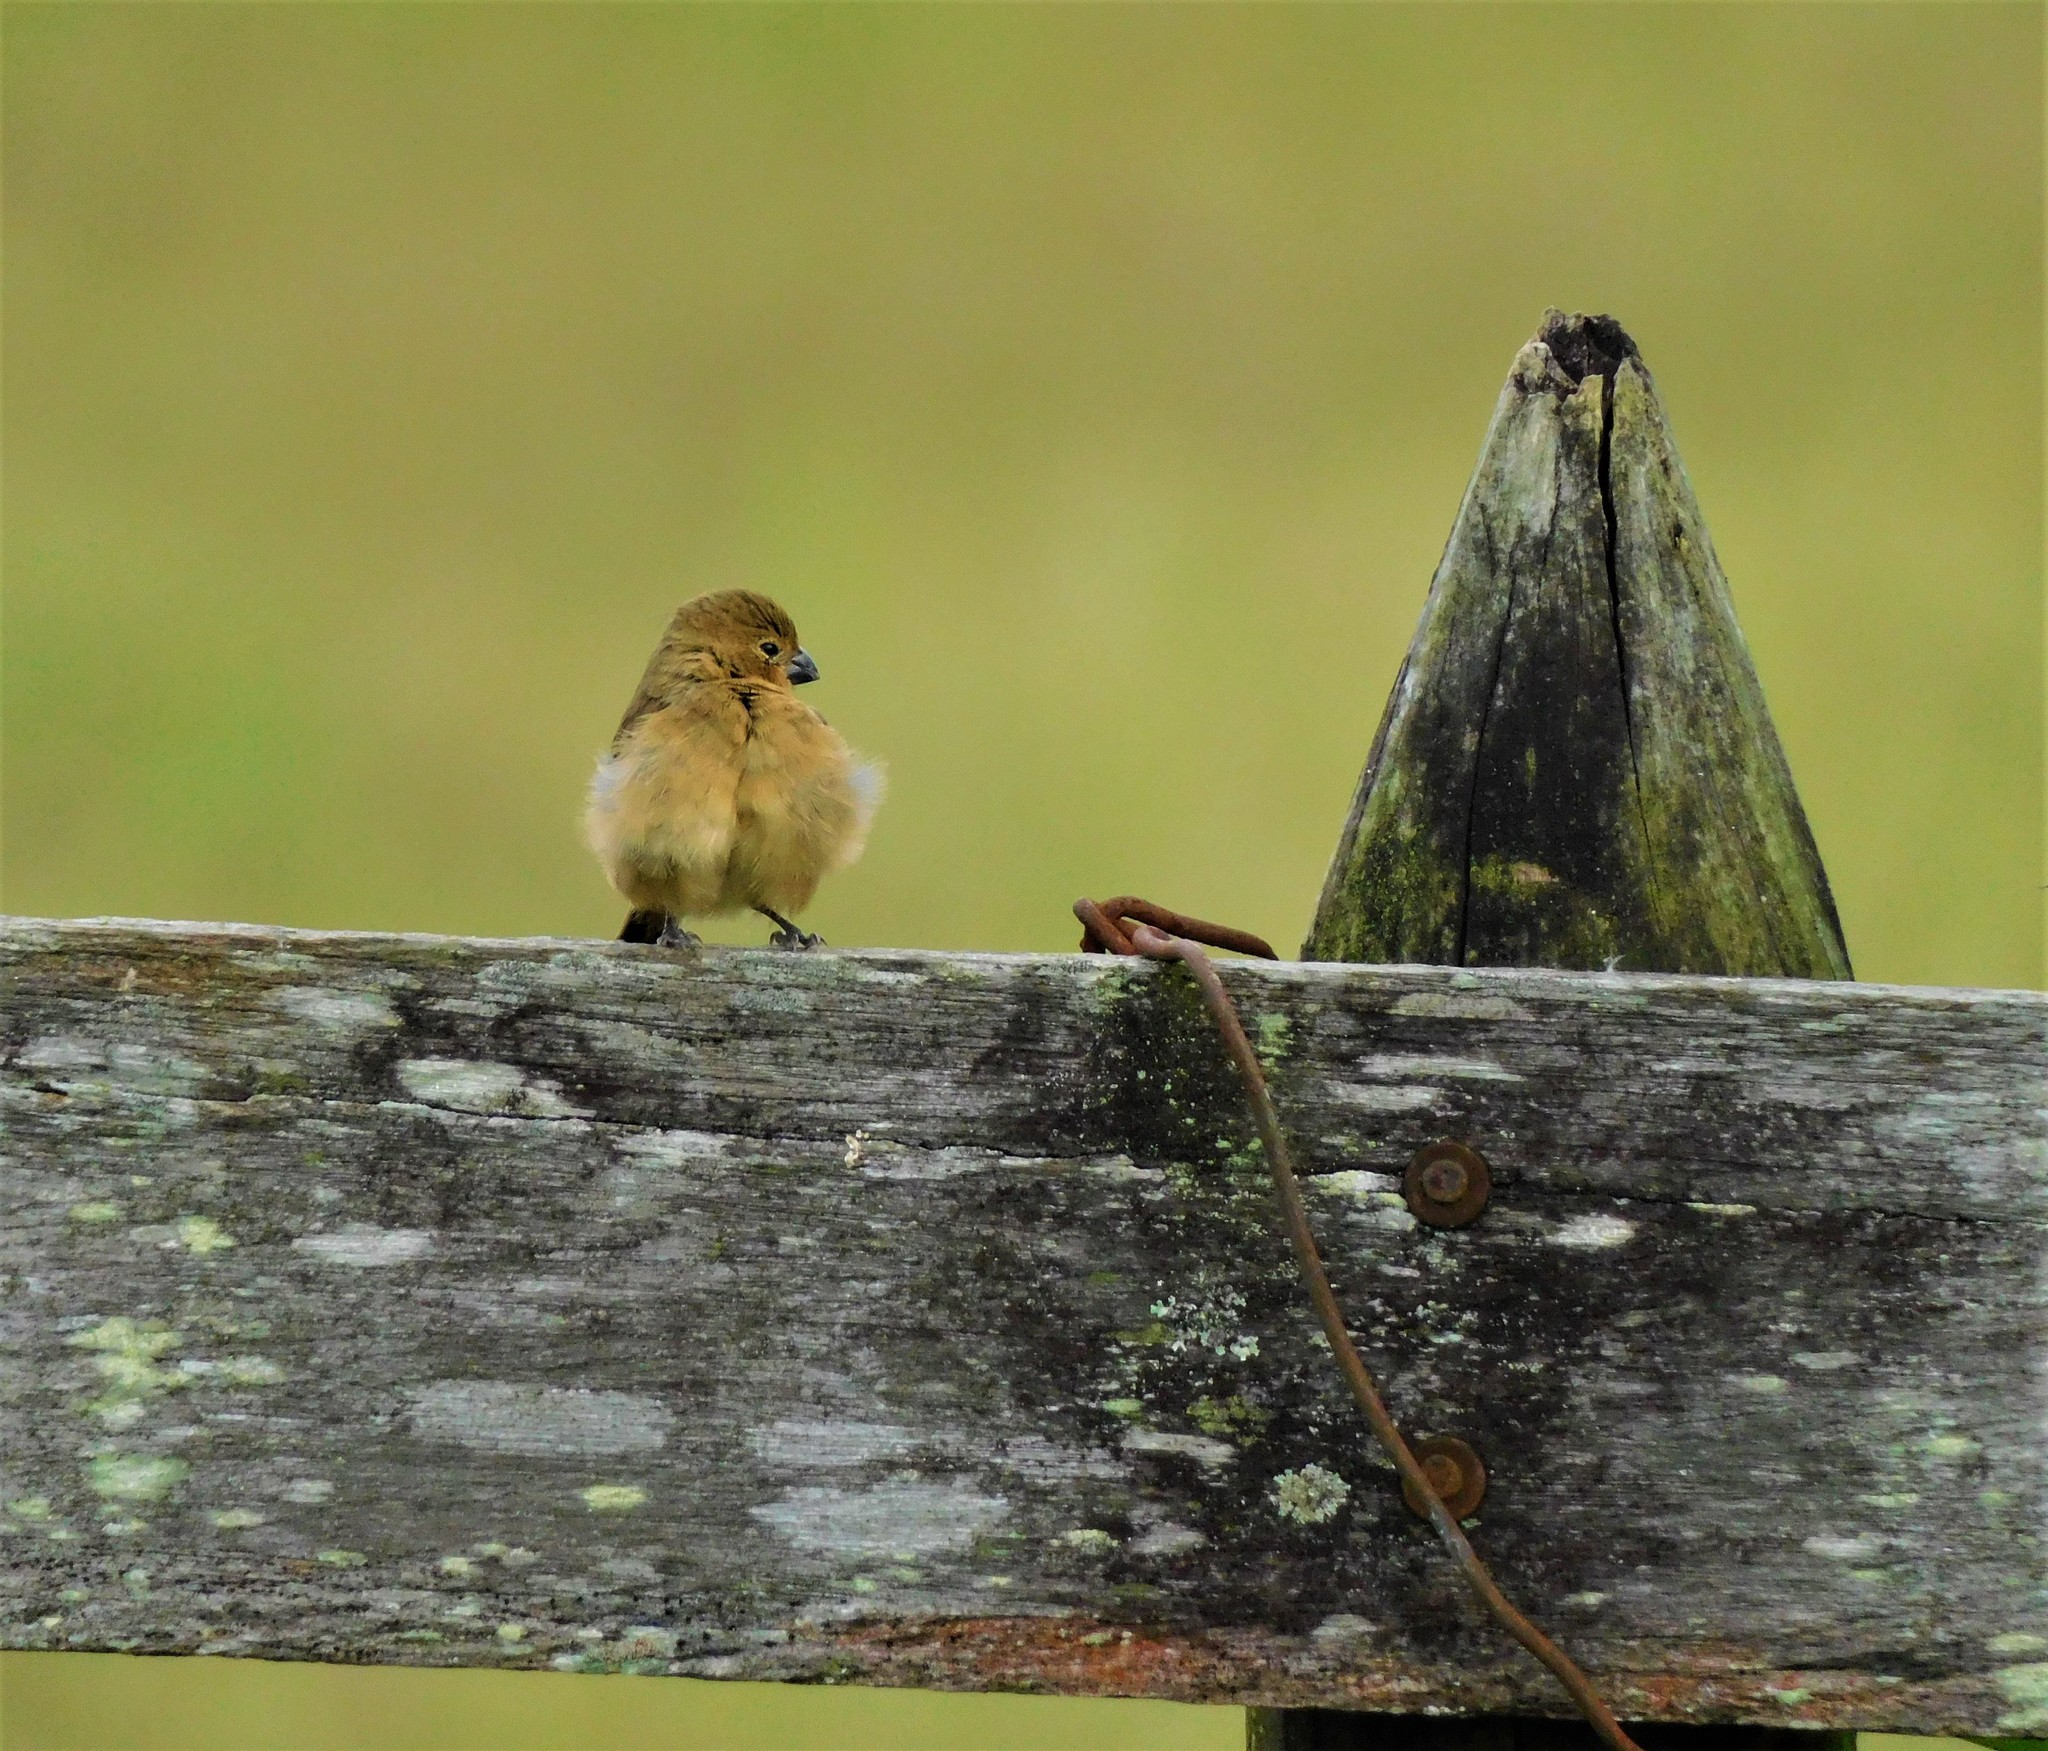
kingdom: Animalia
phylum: Chordata
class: Aves
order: Passeriformes
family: Thraupidae
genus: Sporophila
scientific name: Sporophila minuta
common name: Ruddy-breasted seedeater
